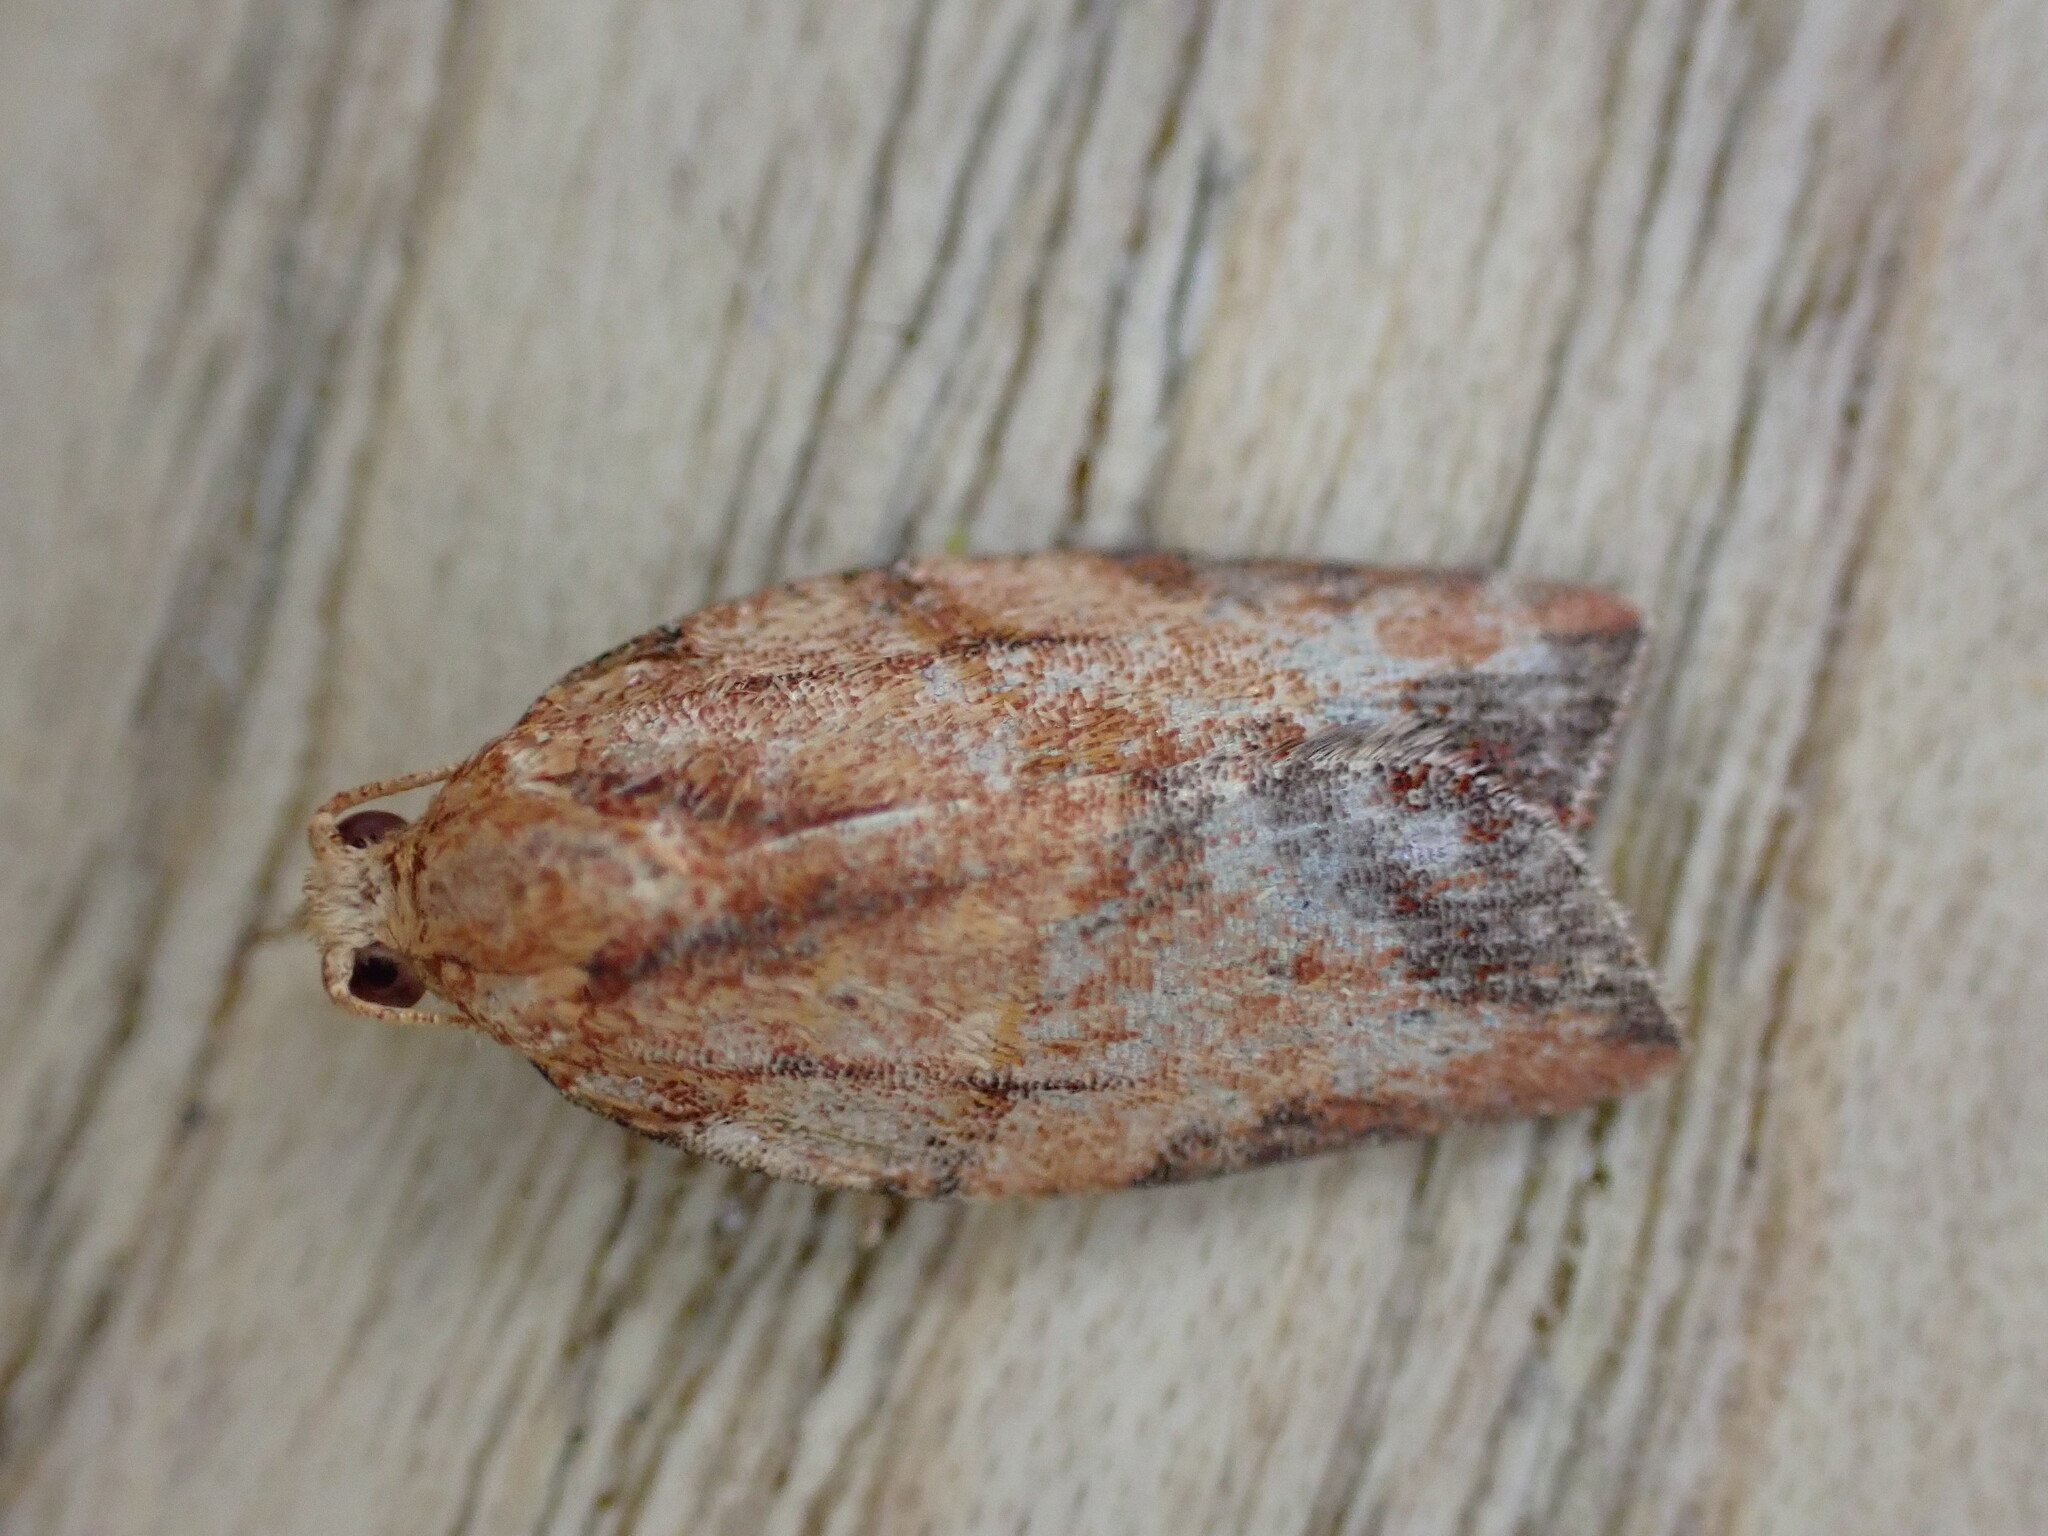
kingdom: Animalia
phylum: Arthropoda
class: Insecta
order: Lepidoptera
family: Tortricidae
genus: Epiphyas
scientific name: Epiphyas postvittana
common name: Light brown apple moth
